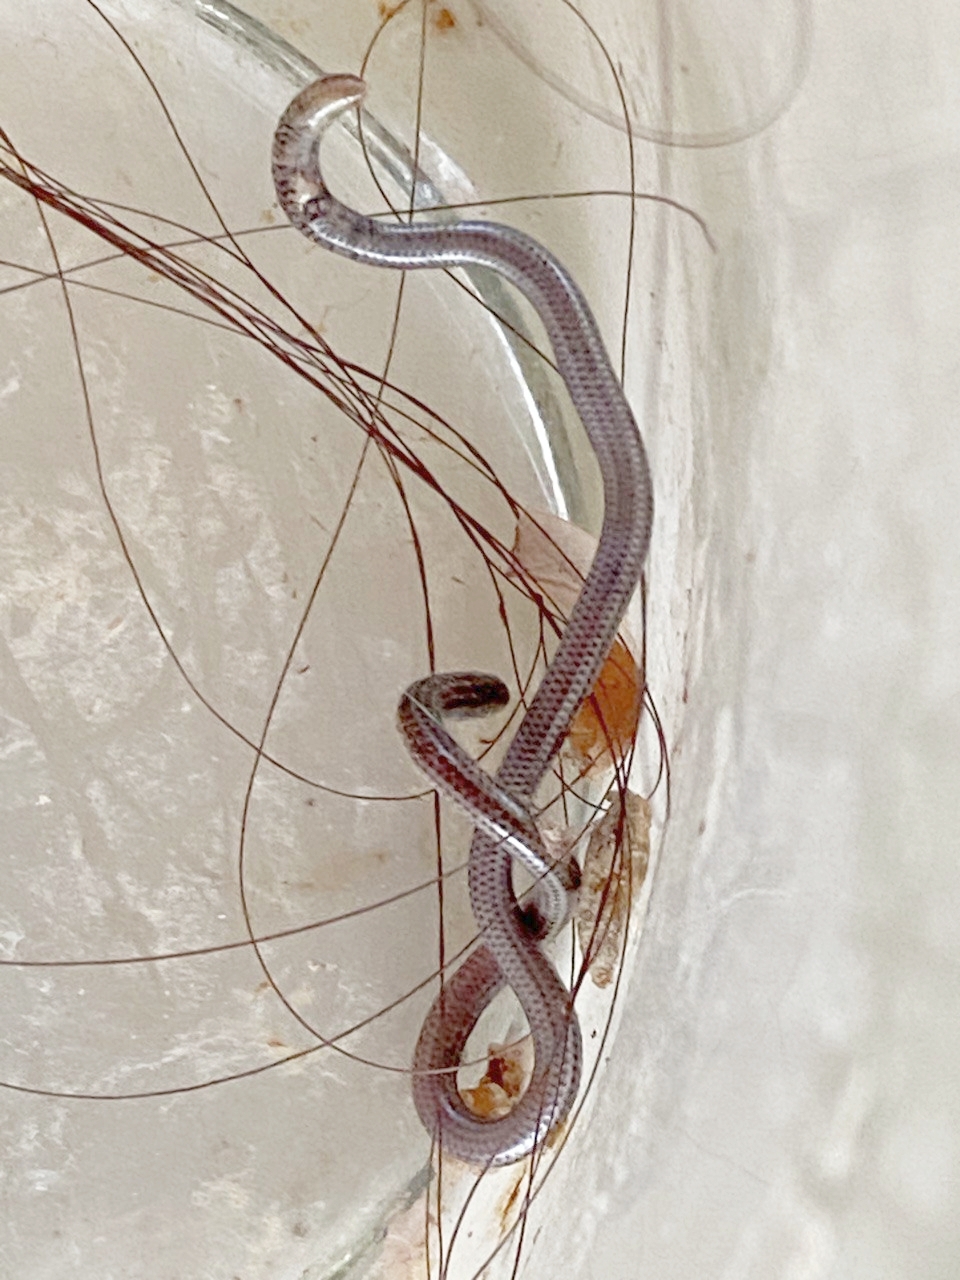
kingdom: Animalia
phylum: Chordata
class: Squamata
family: Leptotyphlopidae
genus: Epictia
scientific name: Epictia vindumi
